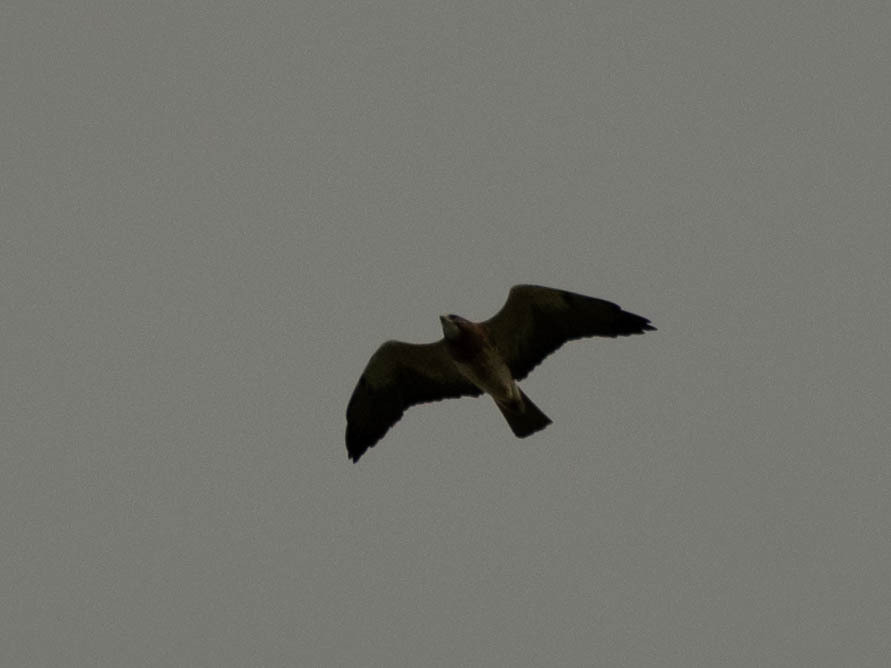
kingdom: Animalia
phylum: Chordata
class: Aves
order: Accipitriformes
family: Accipitridae
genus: Buteo
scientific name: Buteo swainsoni
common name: Swainson's hawk
